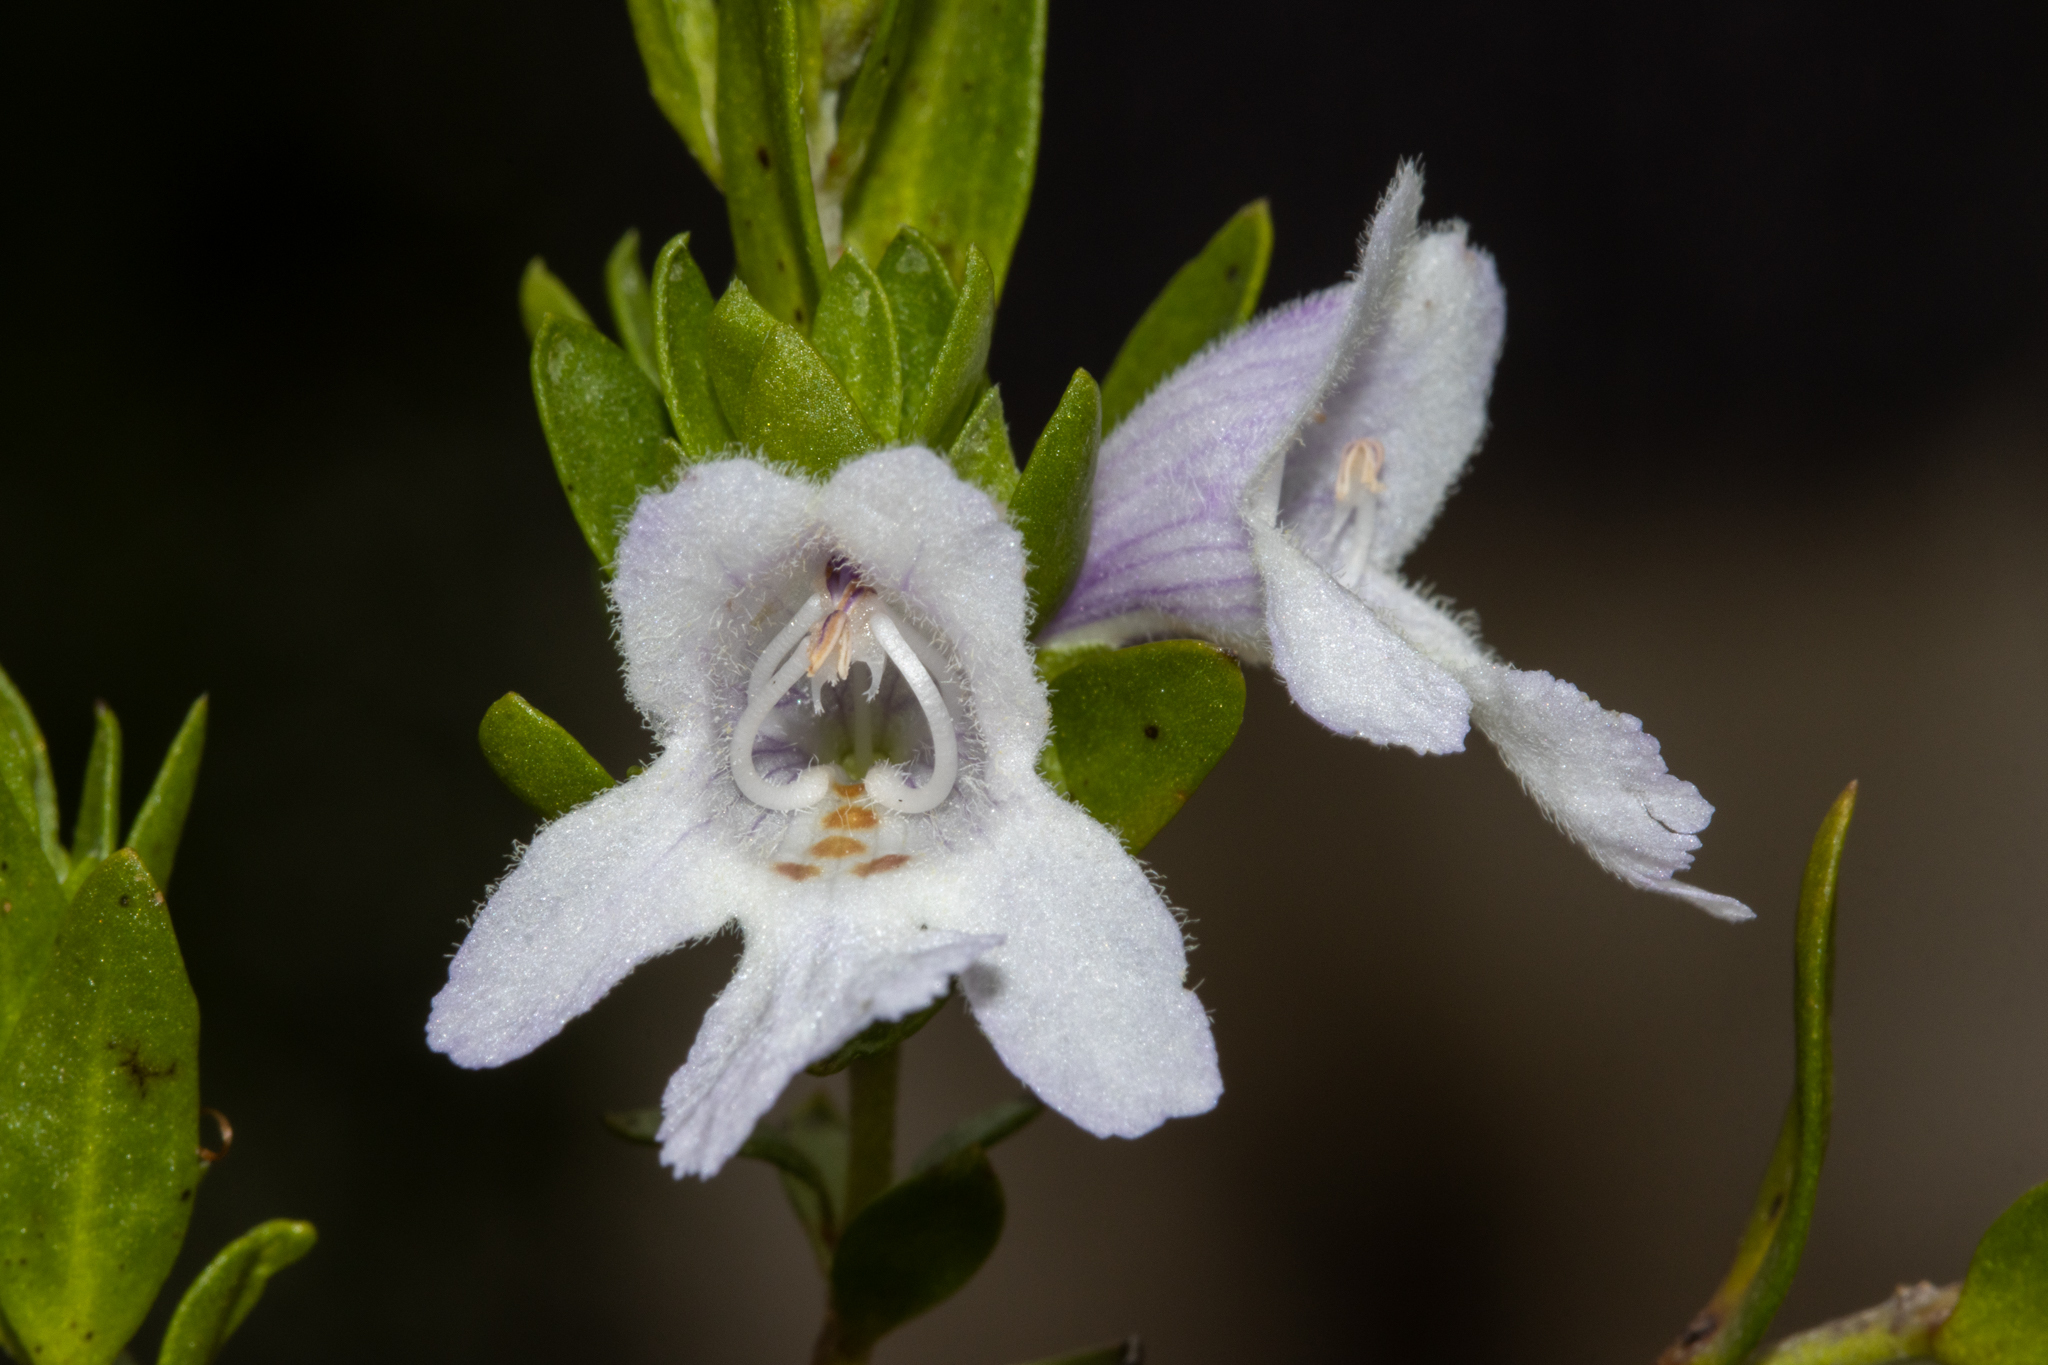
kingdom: Plantae
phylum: Tracheophyta
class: Magnoliopsida
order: Lamiales
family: Lamiaceae
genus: Prostanthera
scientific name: Prostanthera behriana
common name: Downy mintbush
